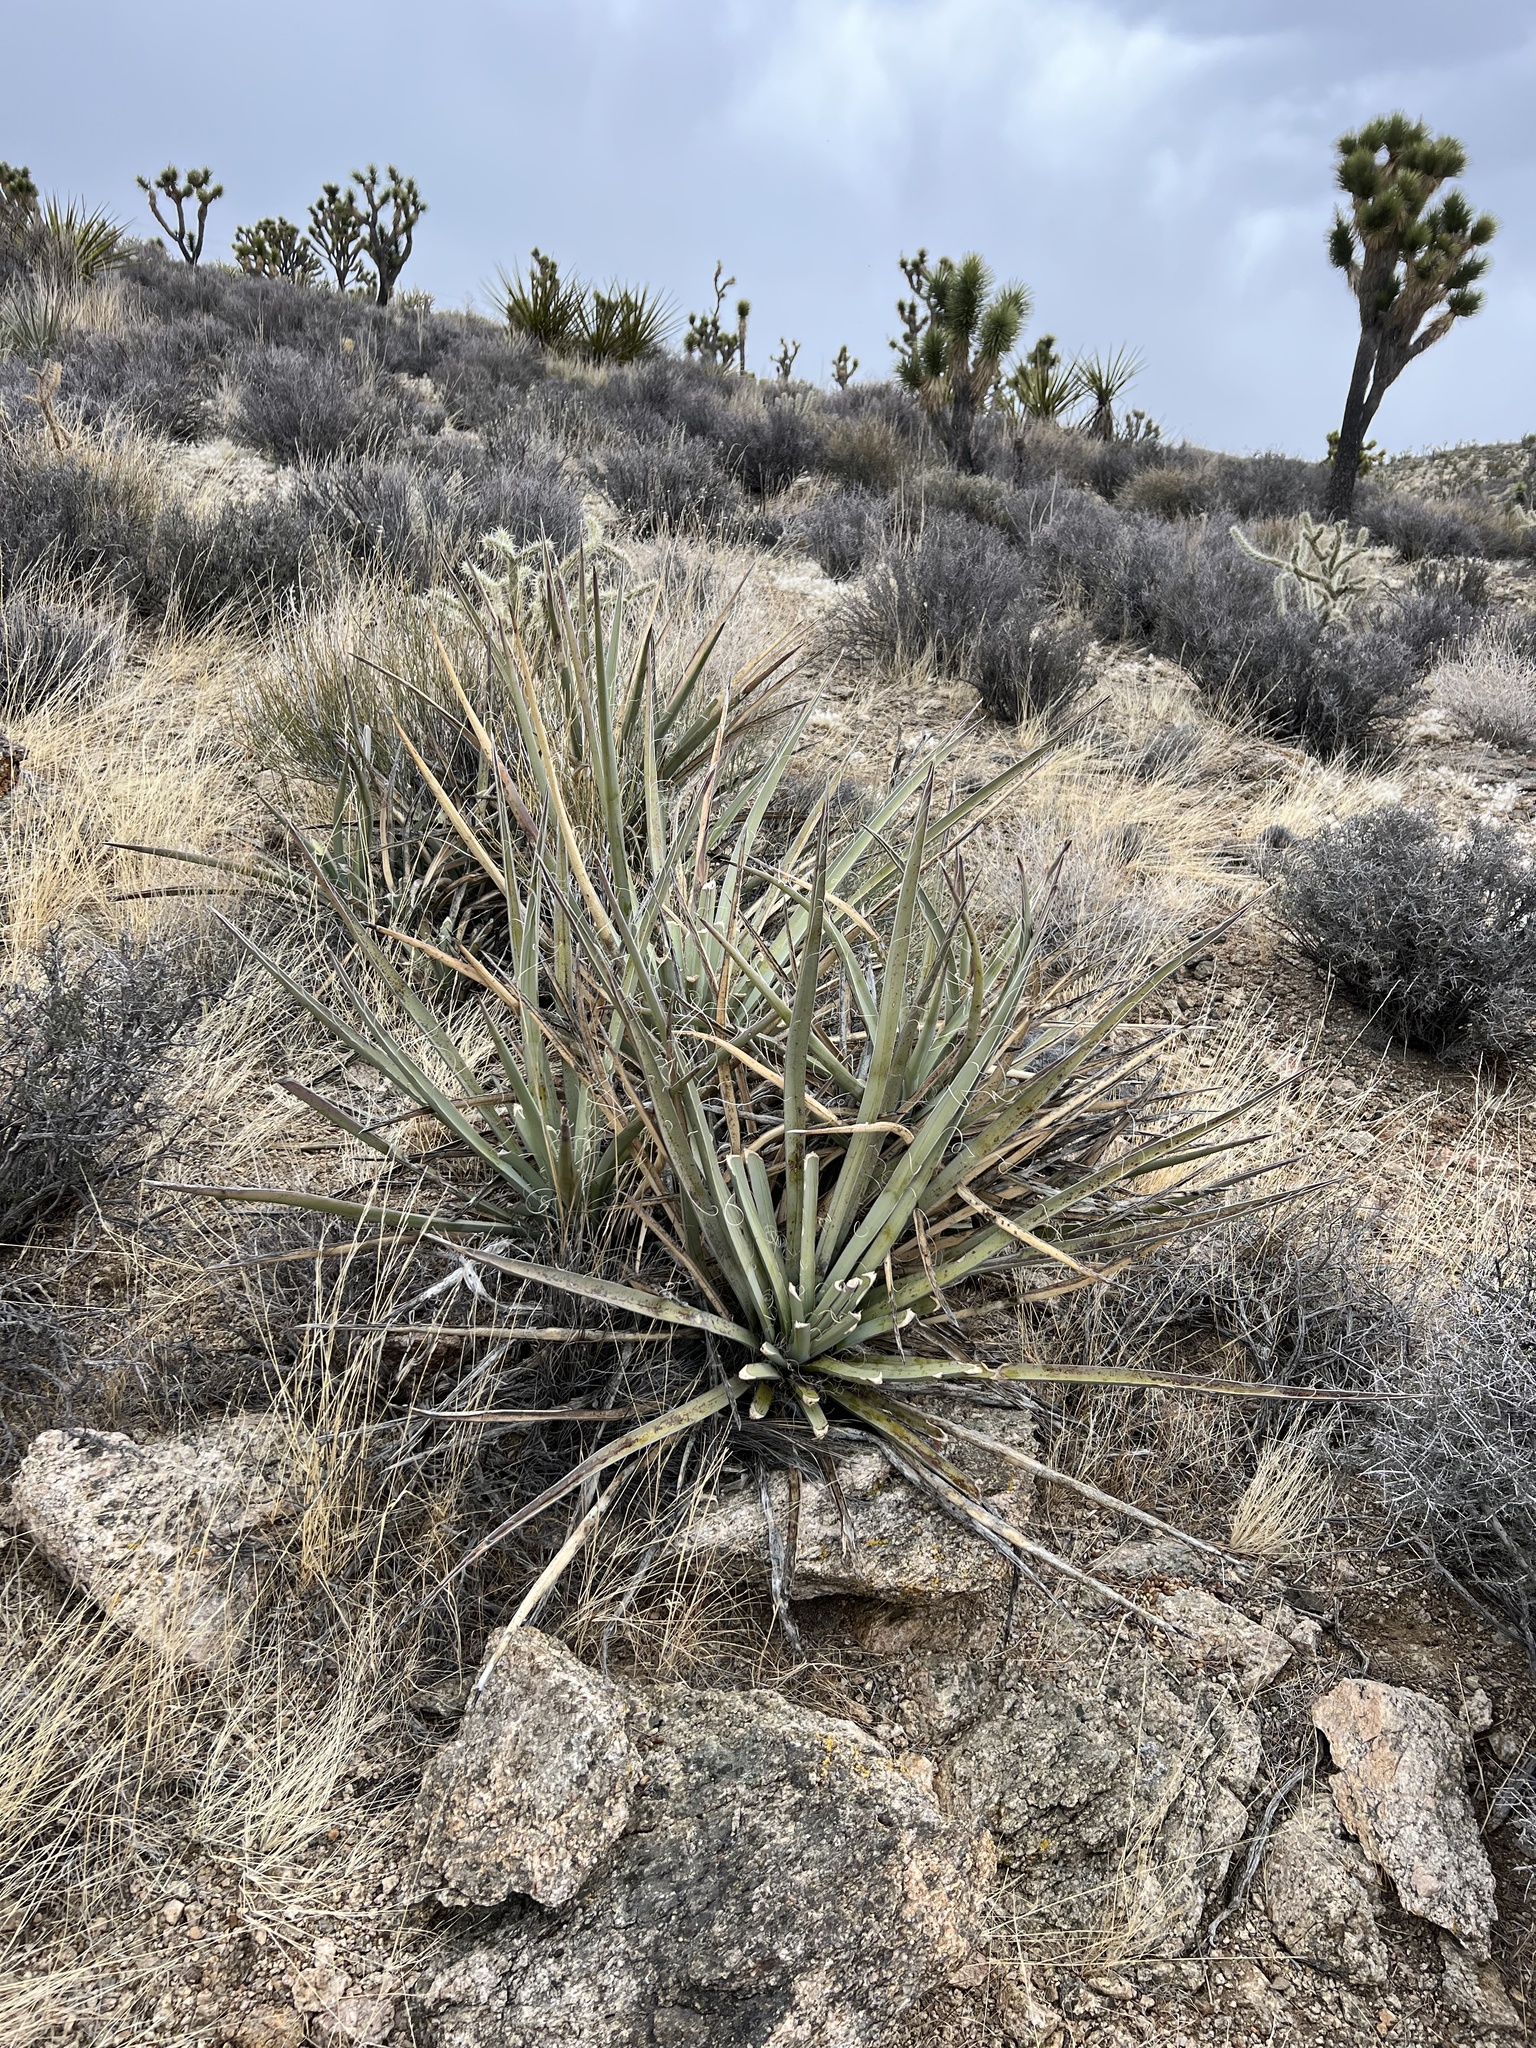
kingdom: Plantae
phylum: Tracheophyta
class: Liliopsida
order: Asparagales
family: Asparagaceae
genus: Yucca
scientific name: Yucca baccata
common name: Banana yucca
